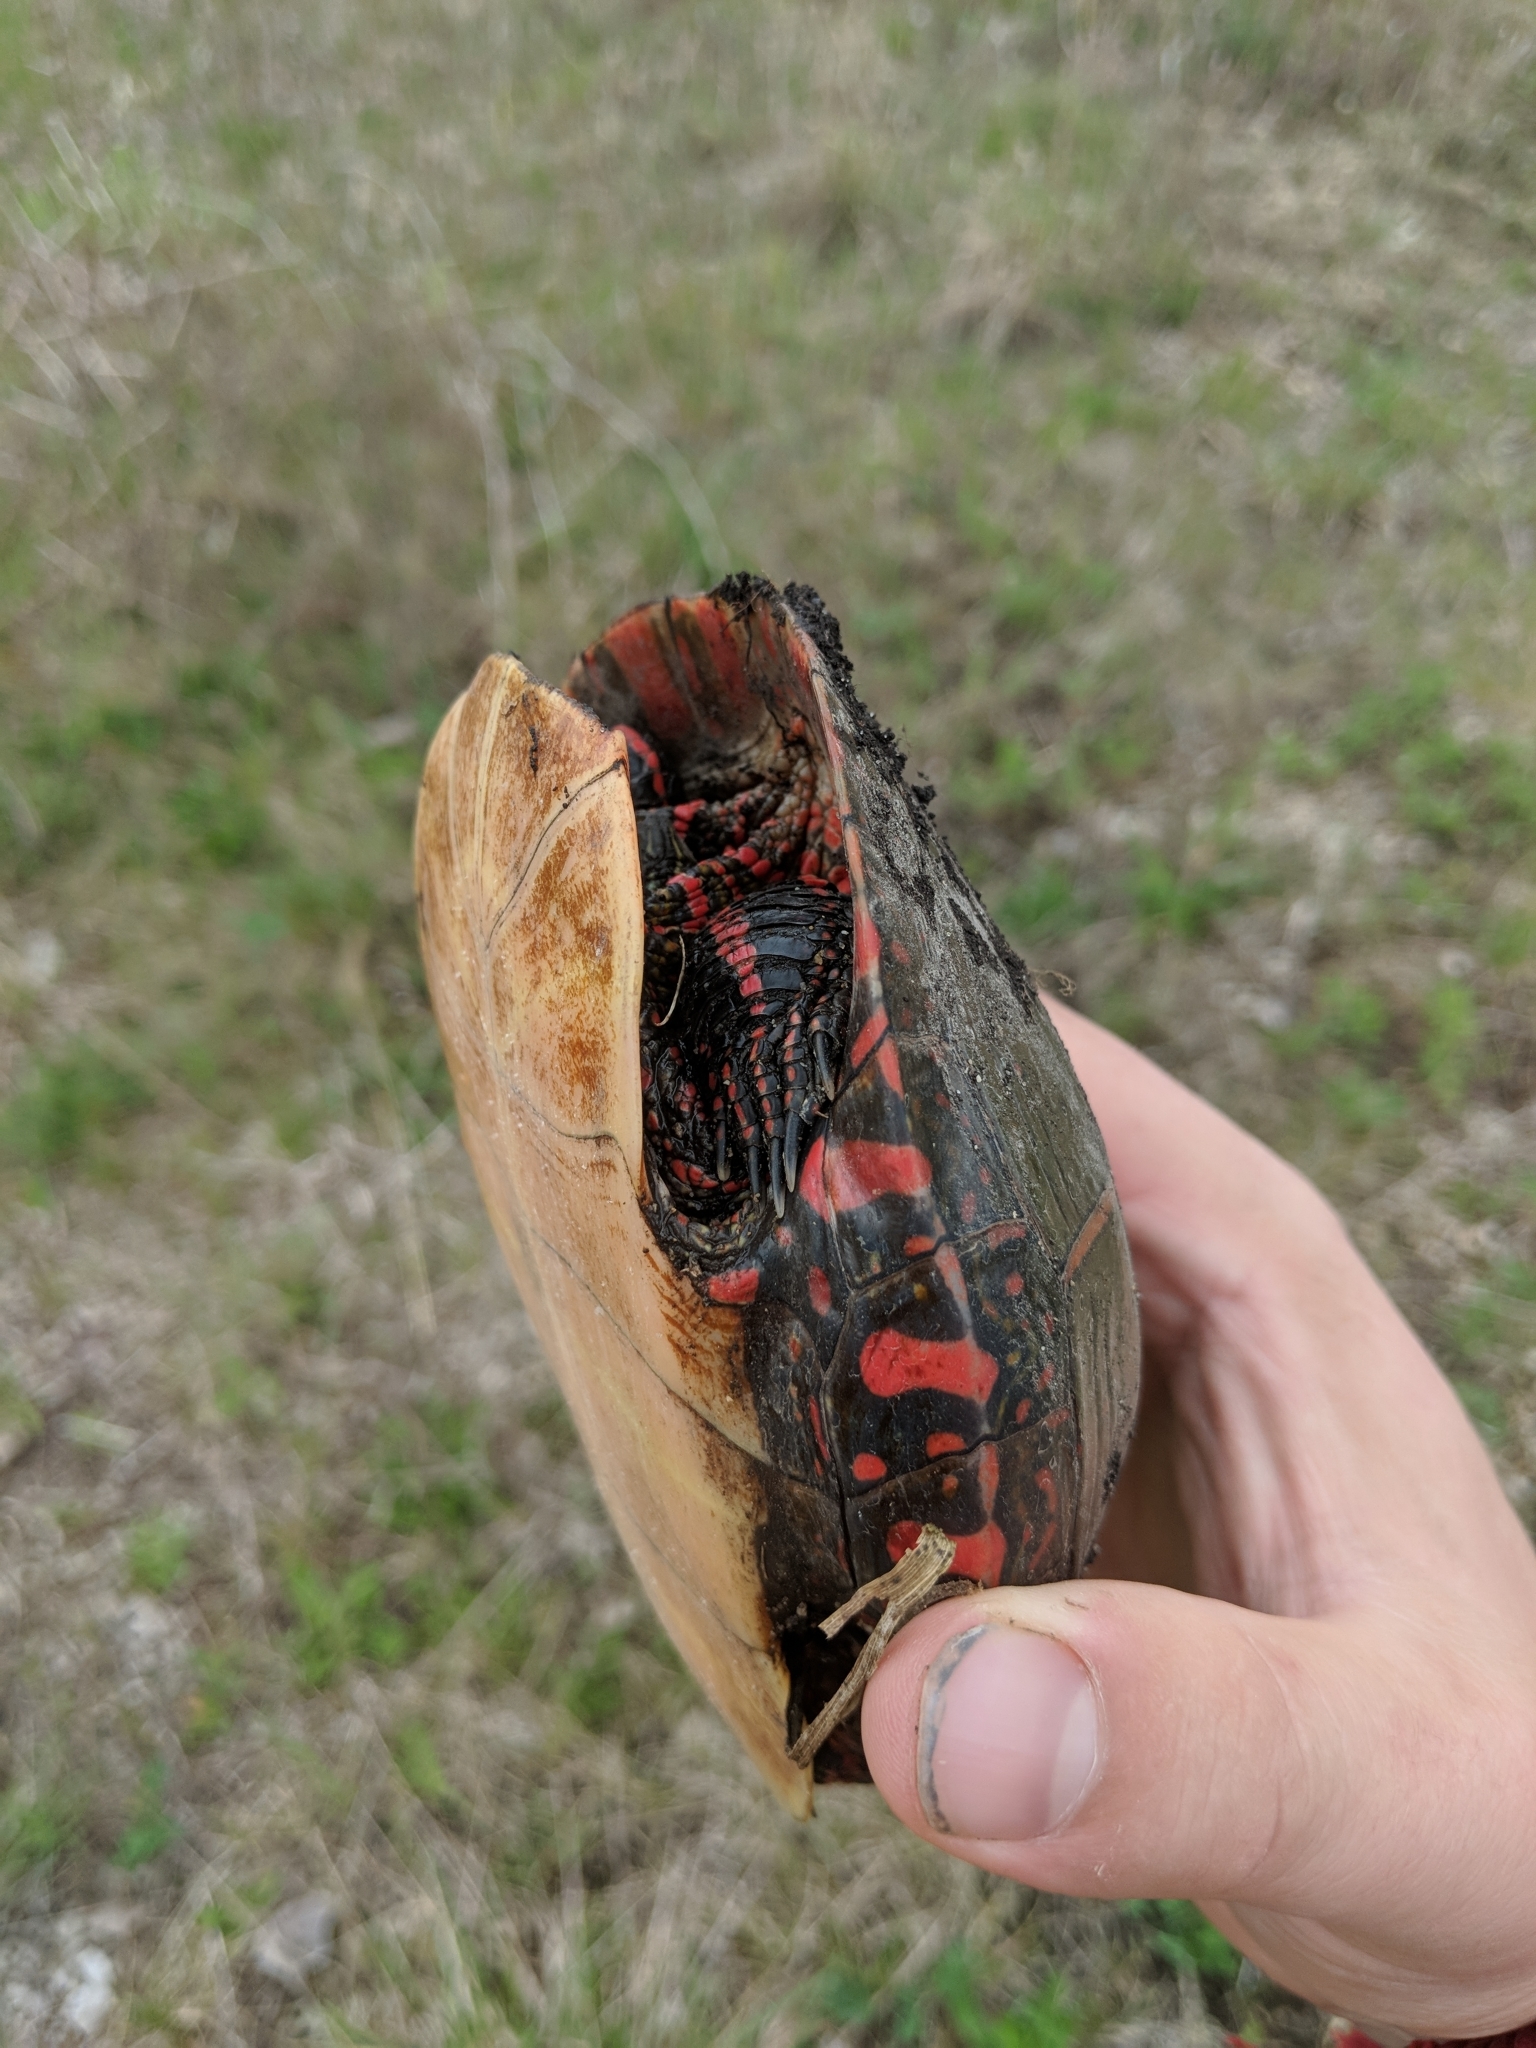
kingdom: Animalia
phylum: Chordata
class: Testudines
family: Emydidae
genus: Chrysemys
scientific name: Chrysemys picta
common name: Painted turtle
